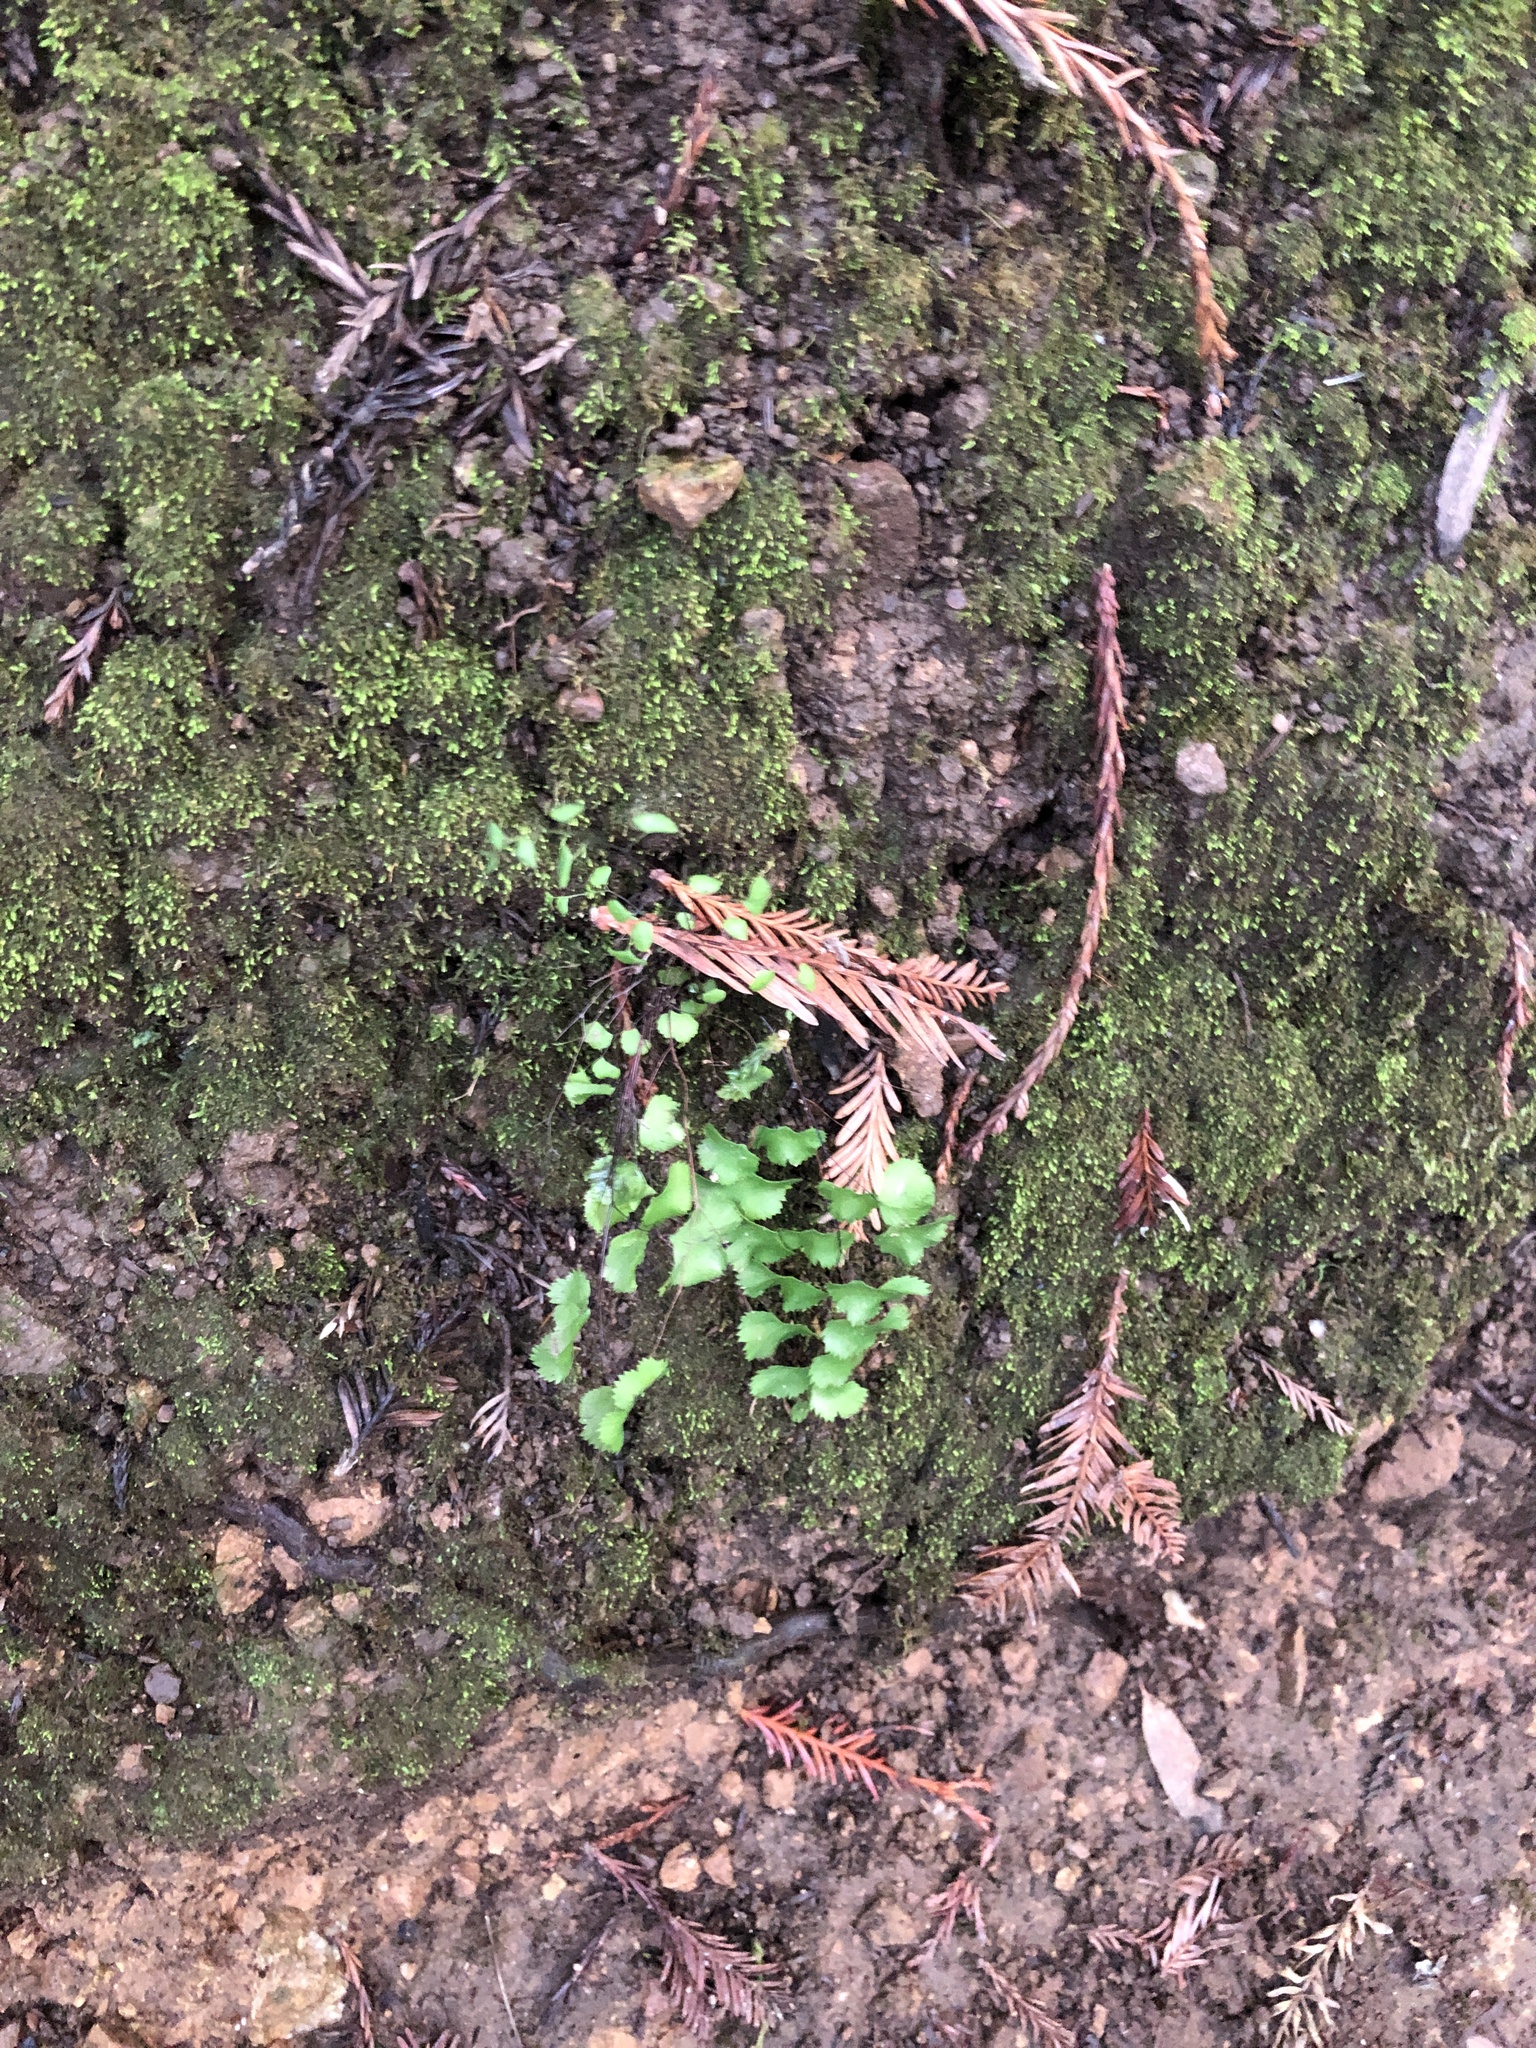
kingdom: Plantae
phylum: Tracheophyta
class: Polypodiopsida
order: Polypodiales
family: Pteridaceae
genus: Adiantum
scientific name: Adiantum jordanii
